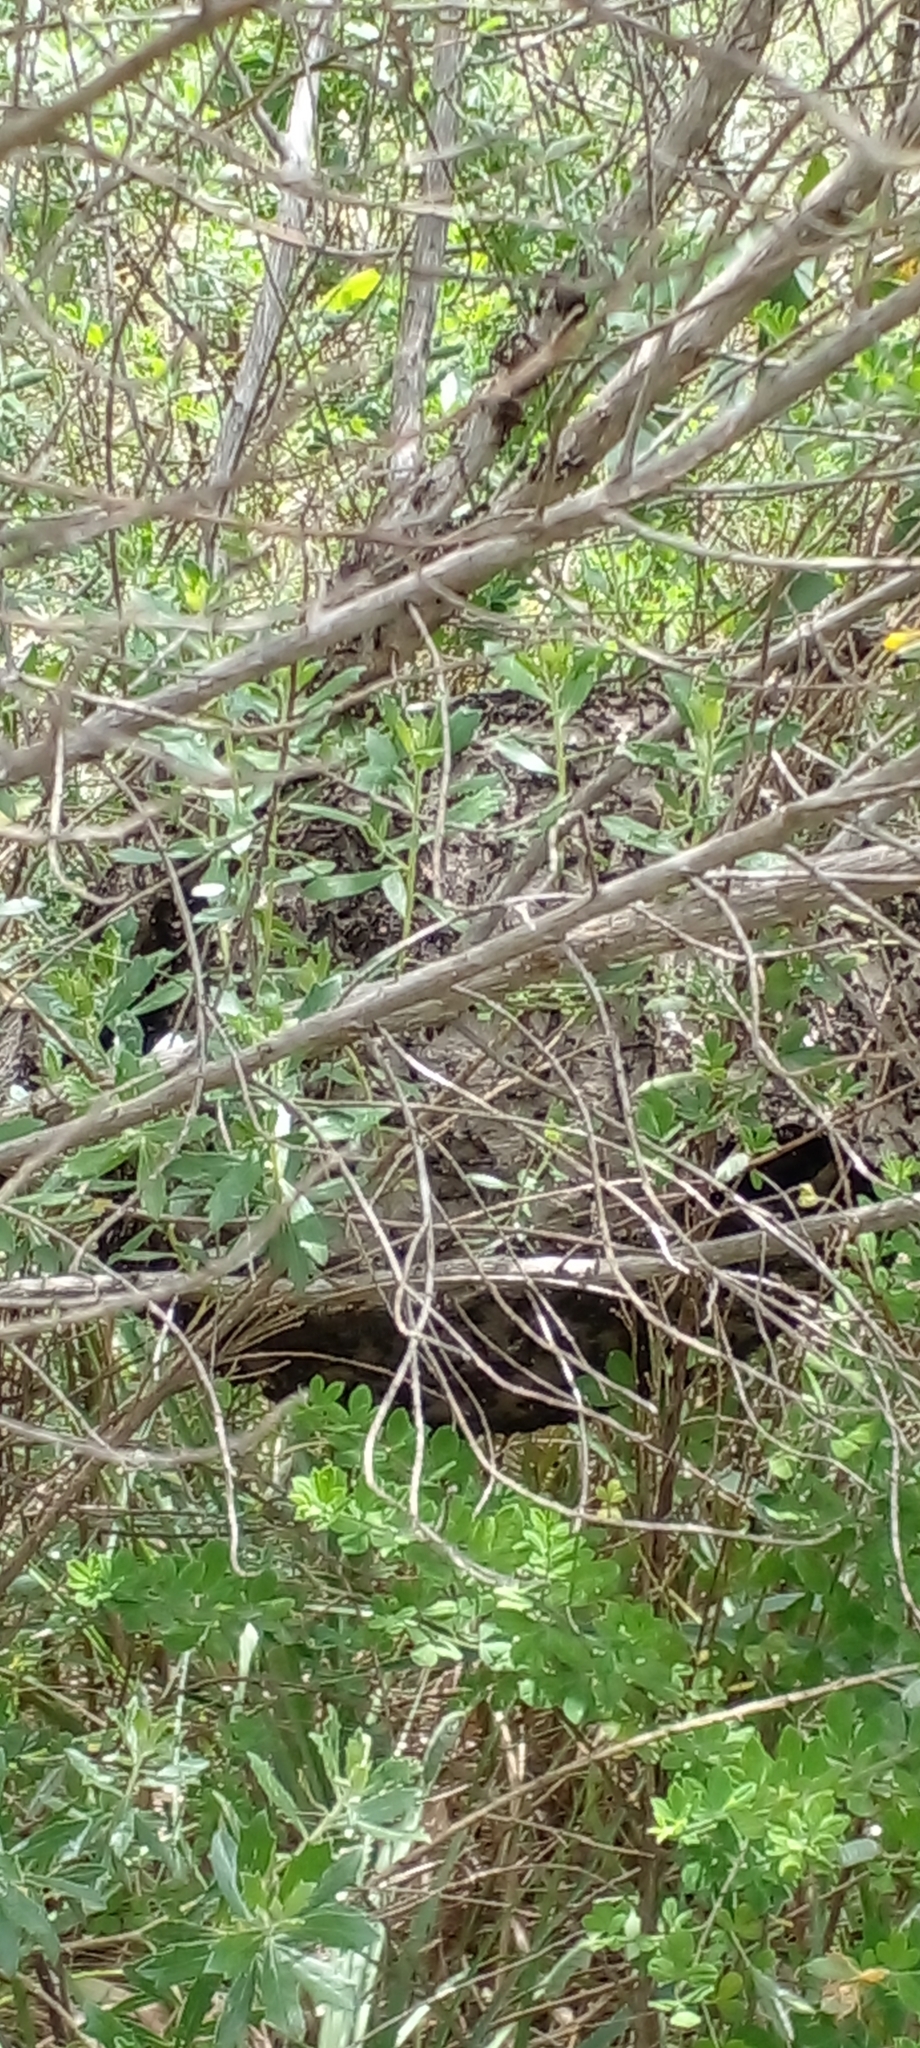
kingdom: Animalia
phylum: Arthropoda
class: Insecta
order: Hymenoptera
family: Eumenidae
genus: Polybia
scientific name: Polybia scutellaris
